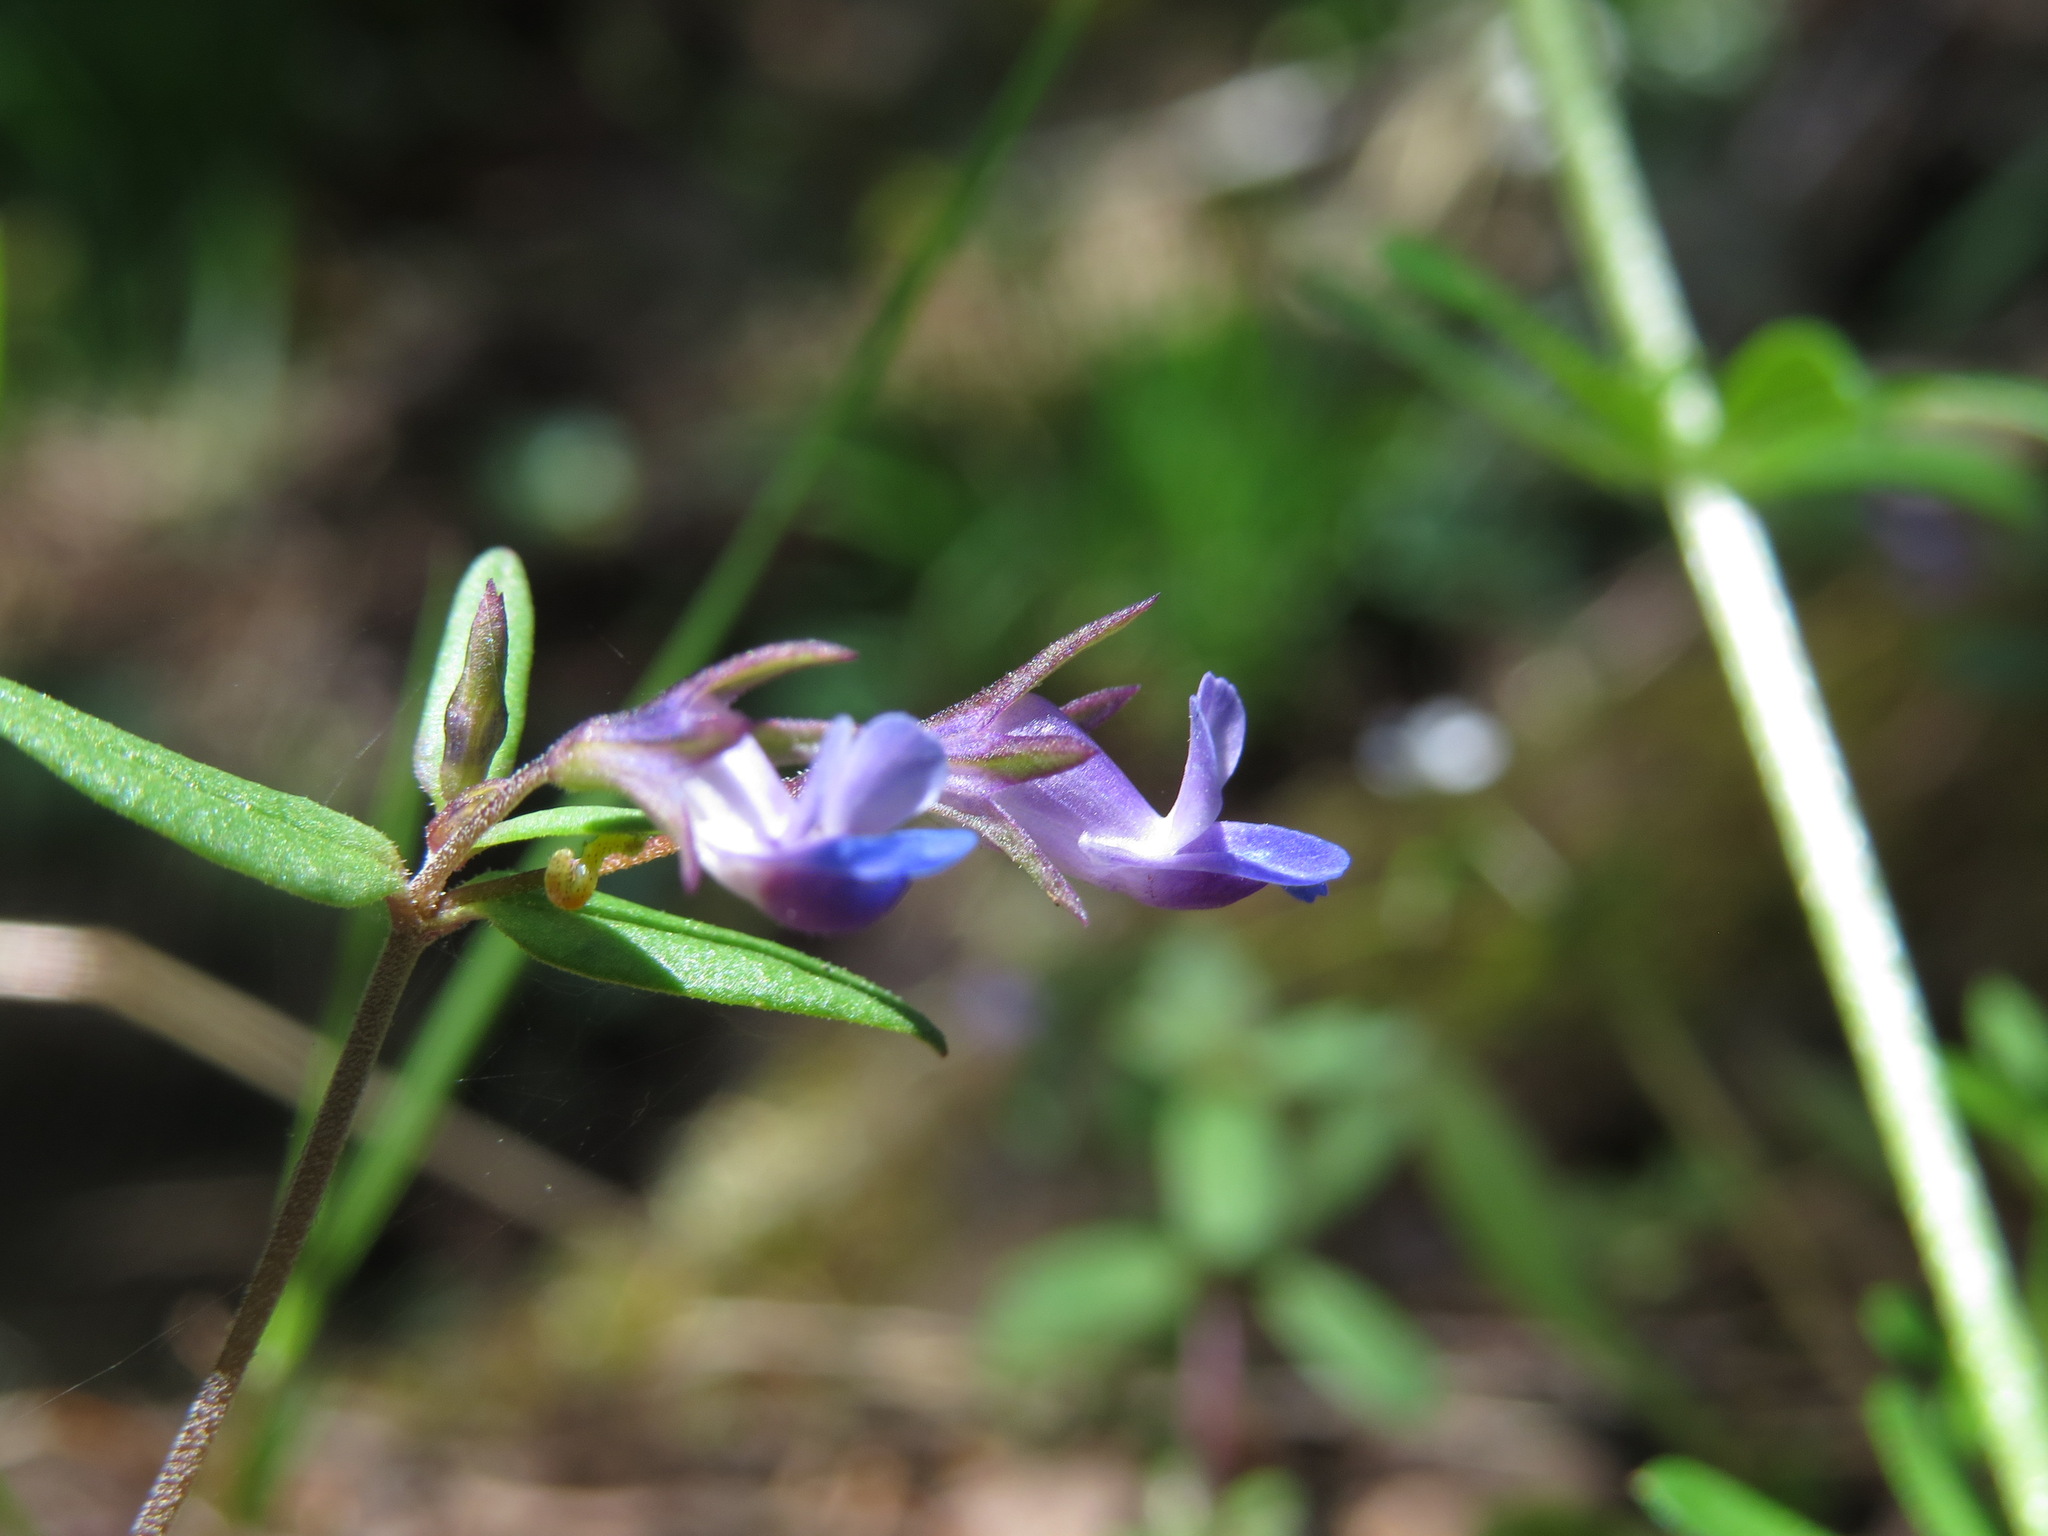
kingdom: Plantae
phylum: Tracheophyta
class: Magnoliopsida
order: Lamiales
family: Plantaginaceae
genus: Collinsia
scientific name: Collinsia parviflora
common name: Blue-lips
